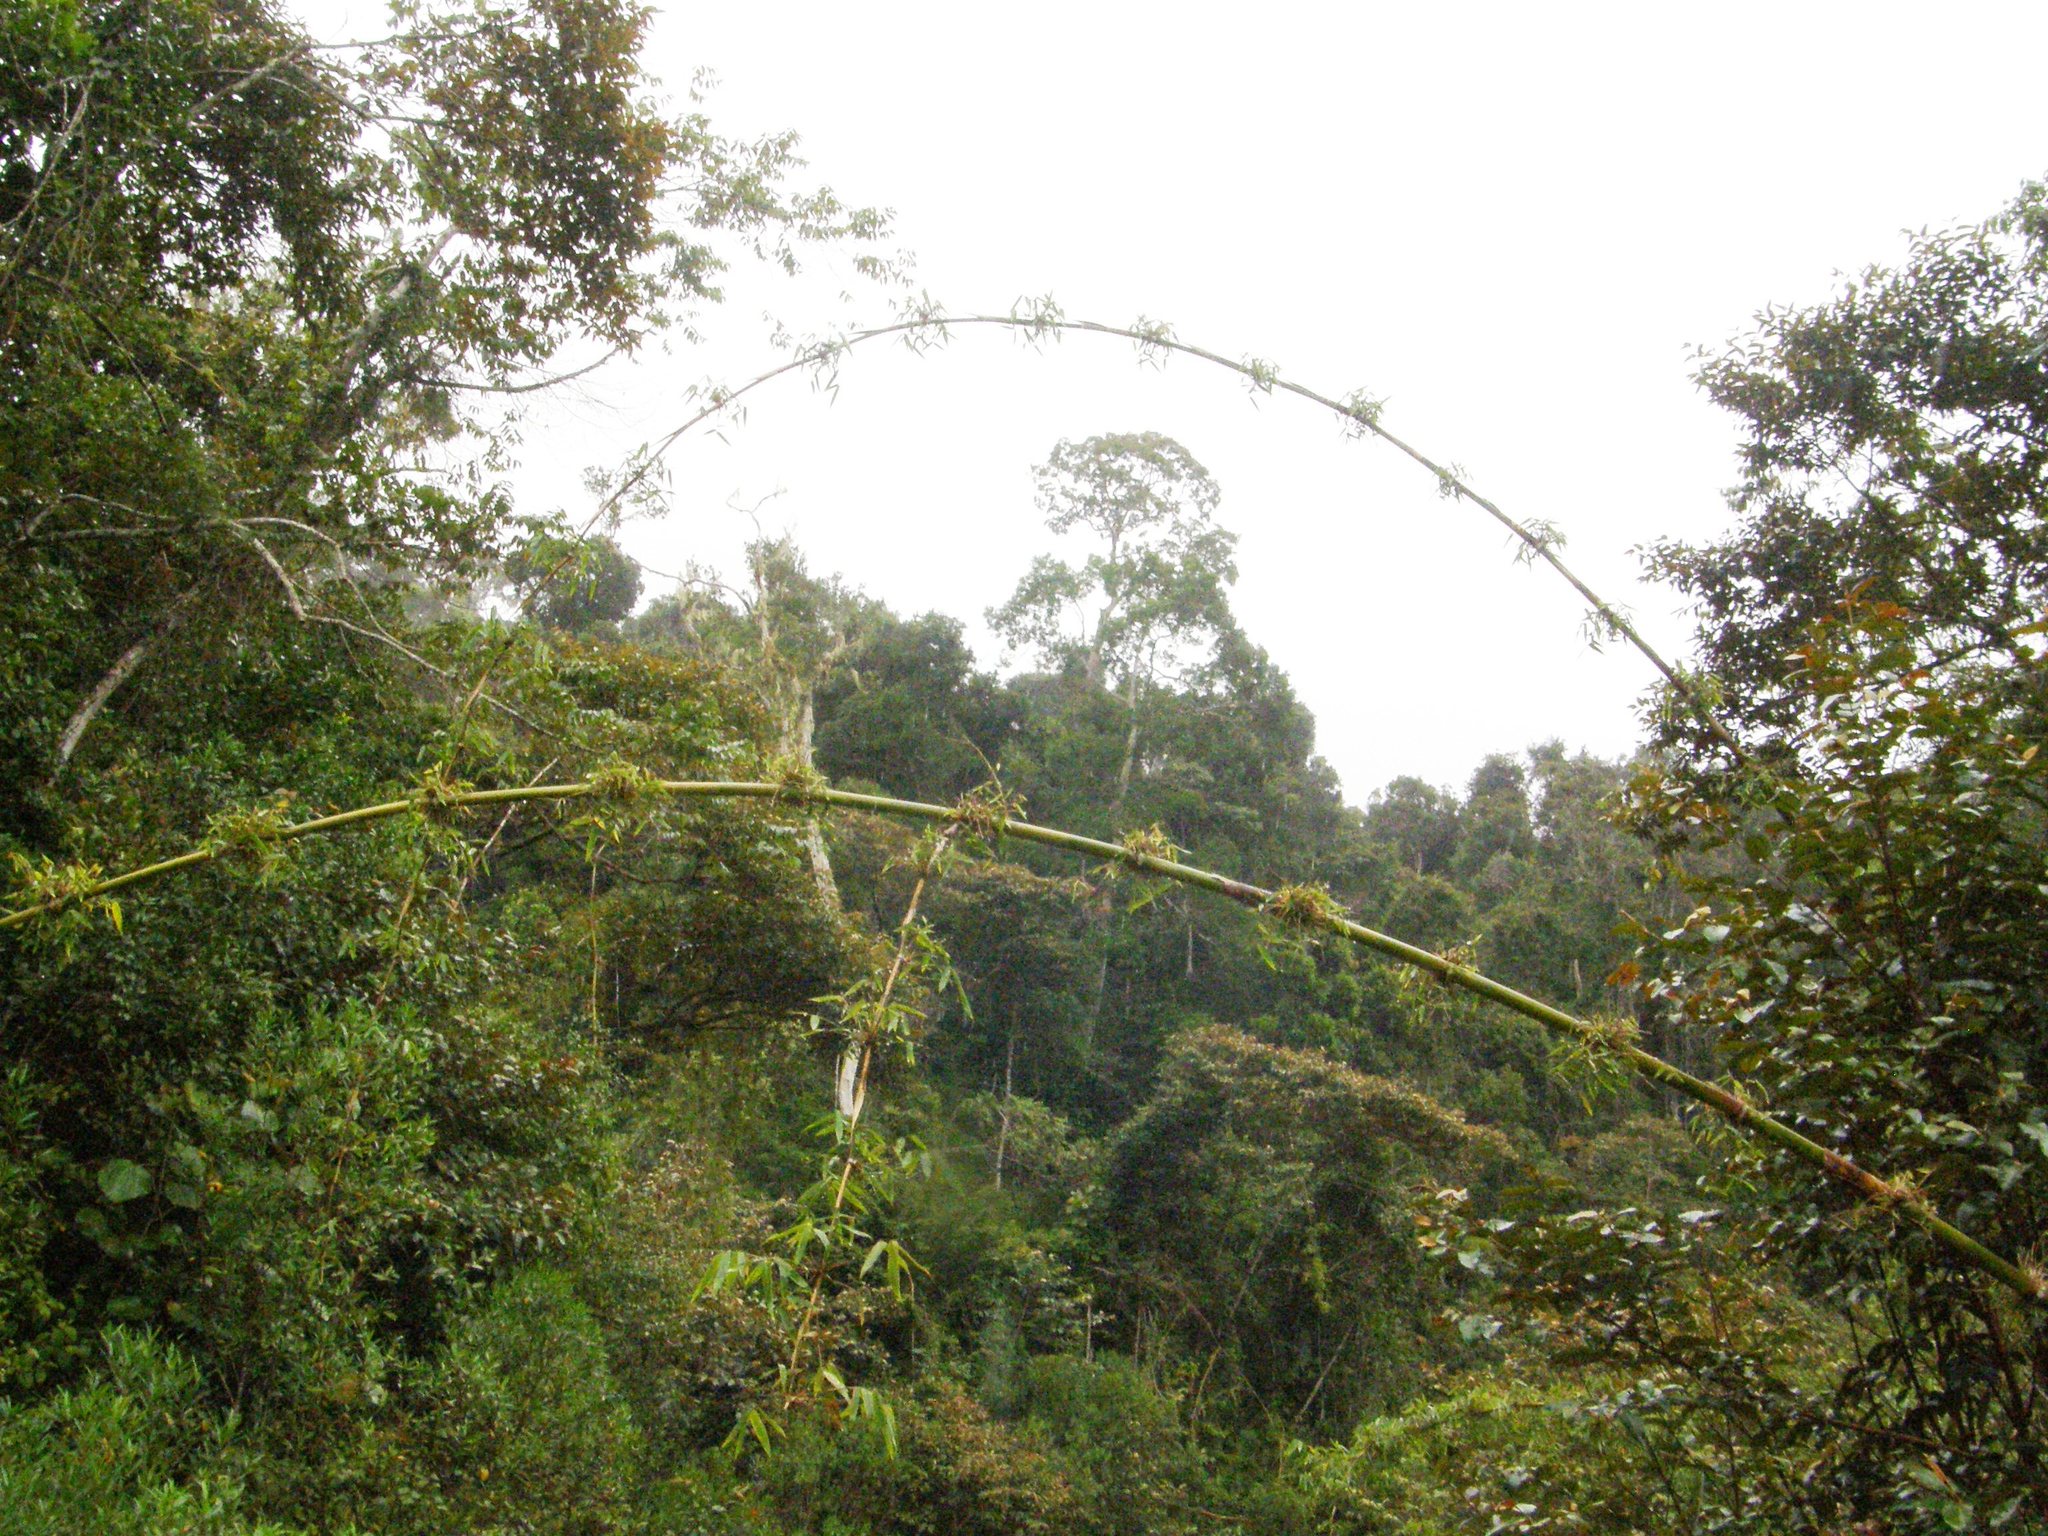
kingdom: Plantae
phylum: Tracheophyta
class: Liliopsida
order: Poales
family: Poaceae
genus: Cathariostachys
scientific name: Cathariostachys madagascariensis
